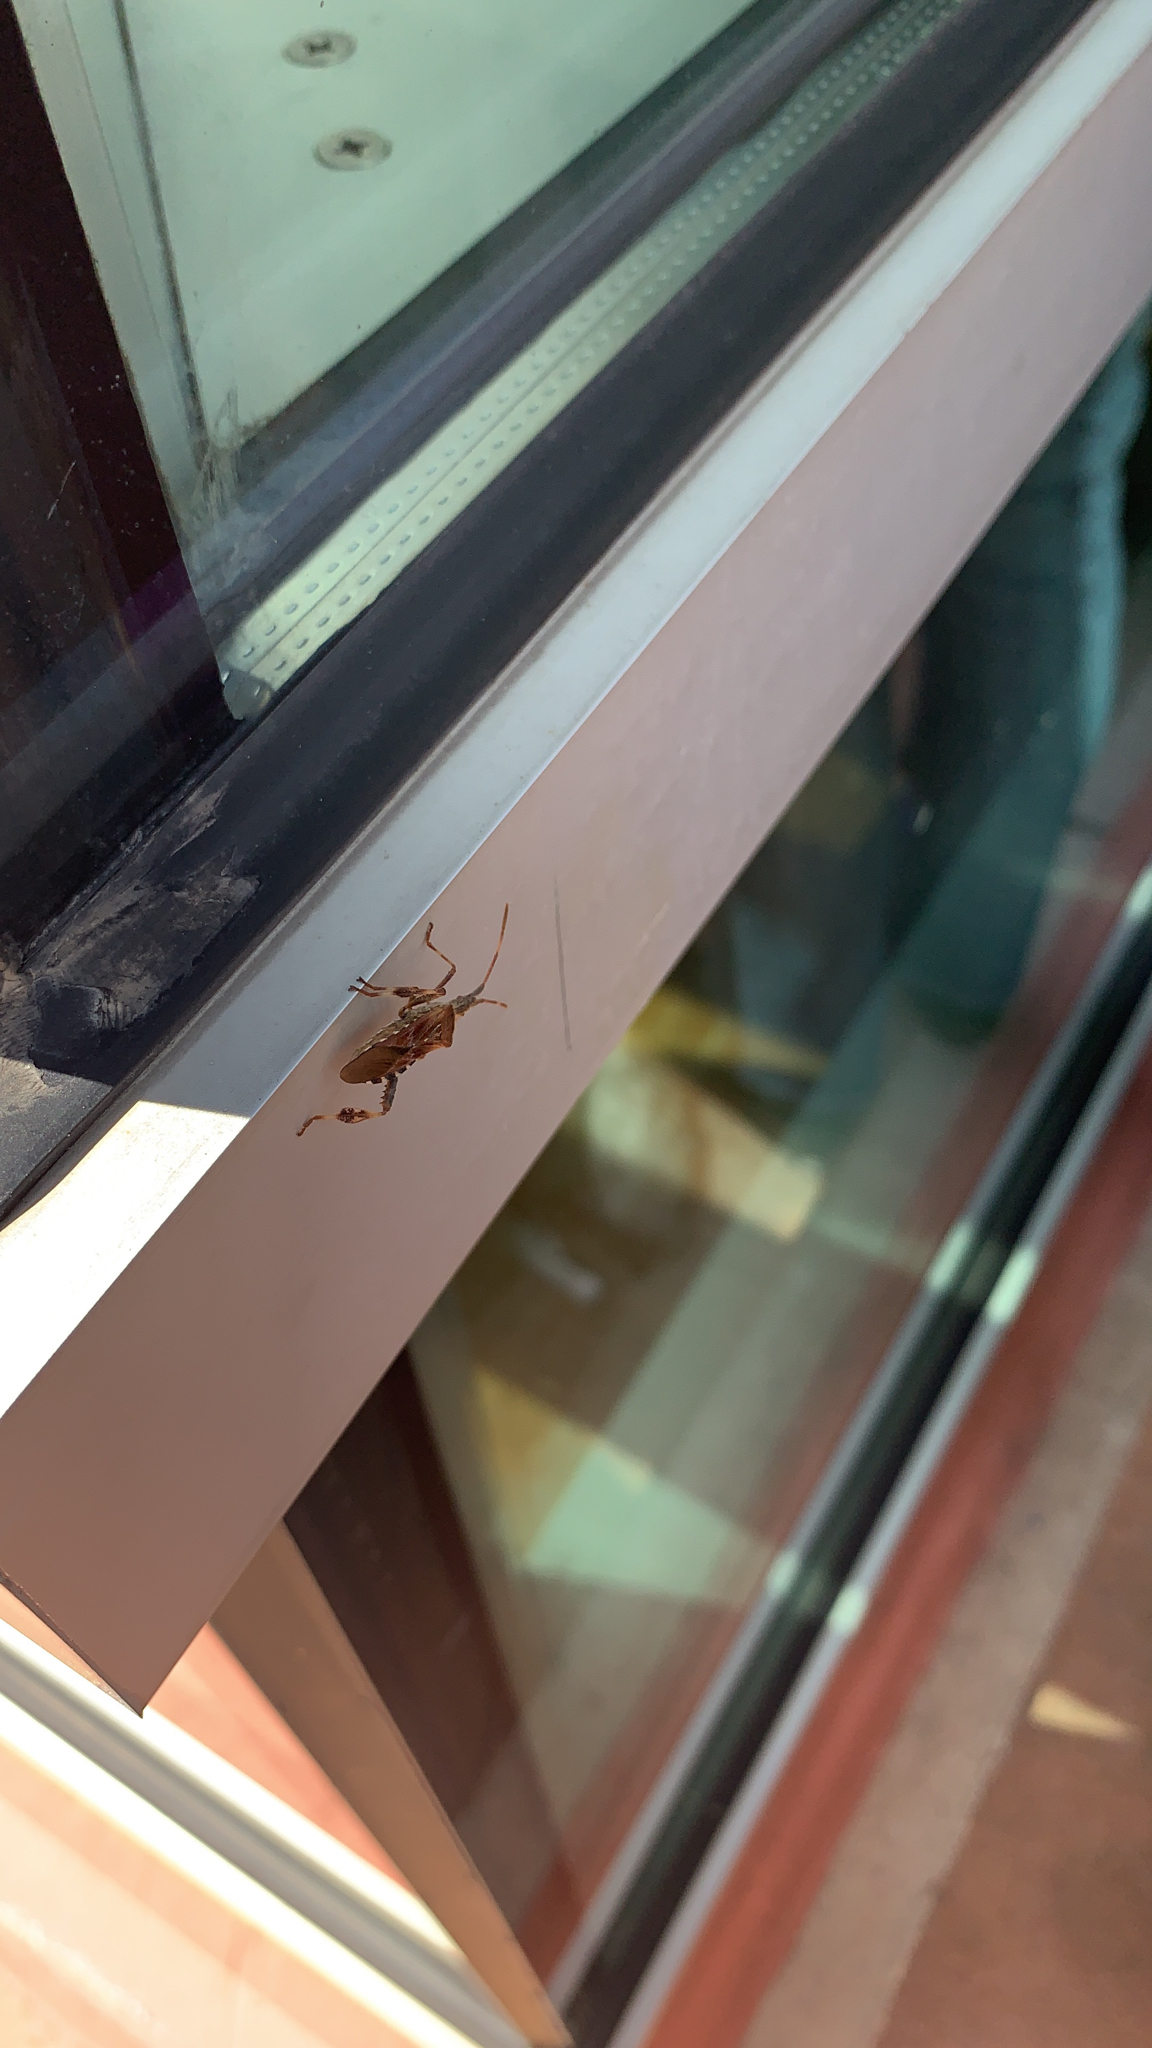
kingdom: Animalia
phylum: Arthropoda
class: Insecta
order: Hemiptera
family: Coreidae
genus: Leptoglossus
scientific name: Leptoglossus occidentalis
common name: Western conifer-seed bug
